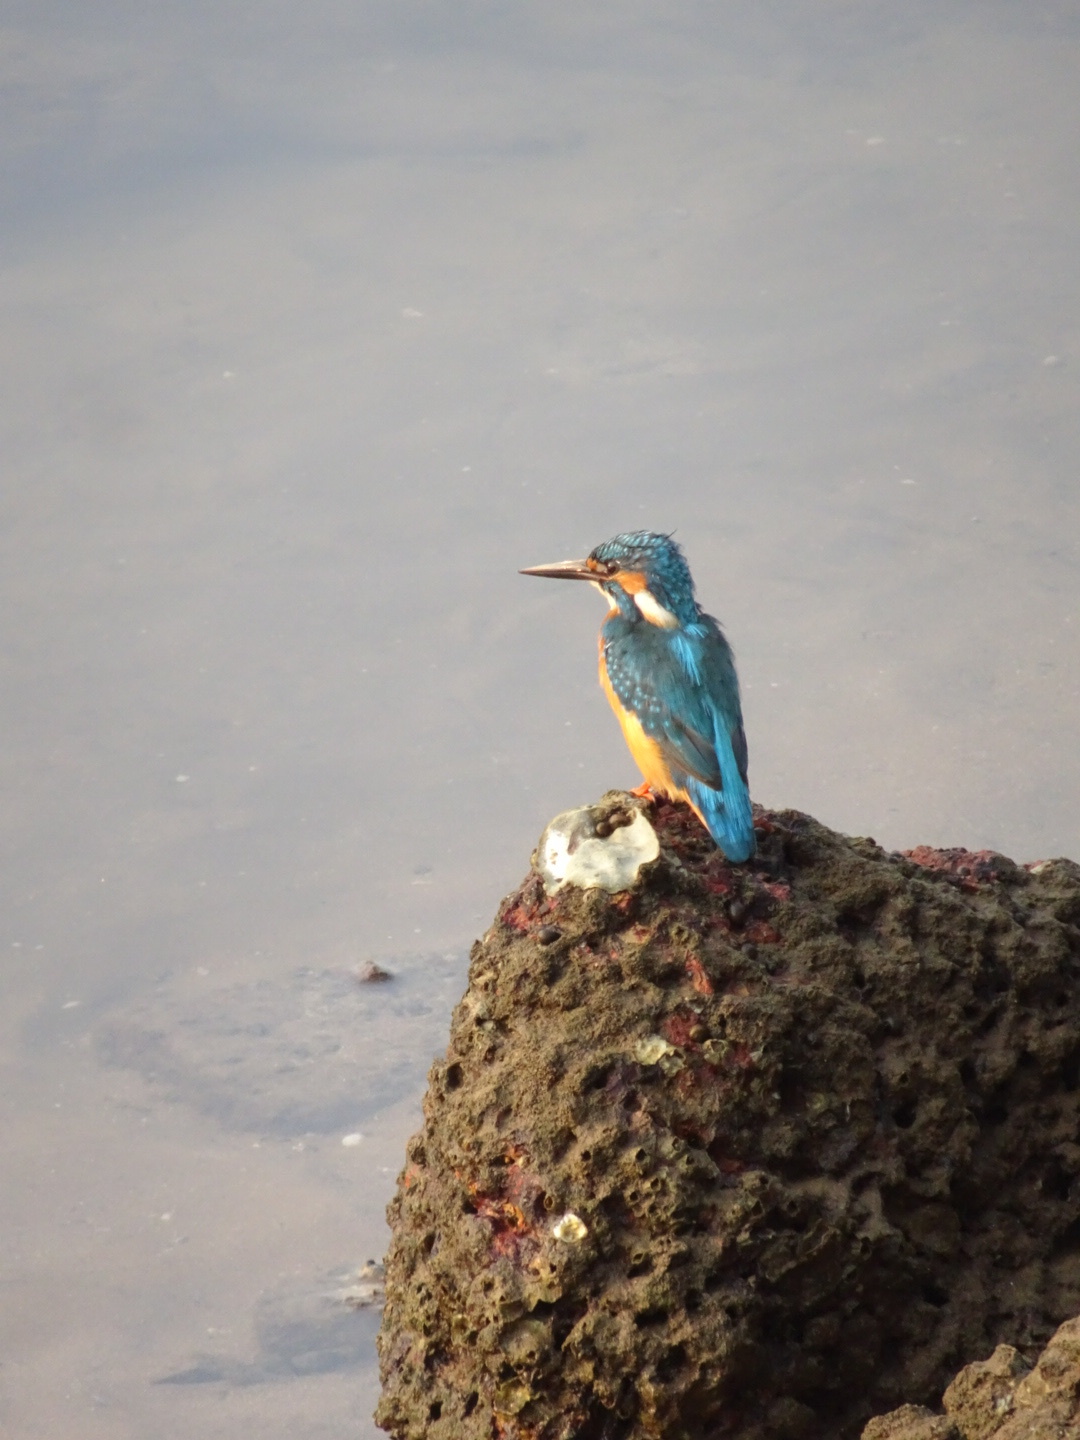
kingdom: Animalia
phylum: Chordata
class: Aves
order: Coraciiformes
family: Alcedinidae
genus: Alcedo
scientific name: Alcedo atthis
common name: Common kingfisher
